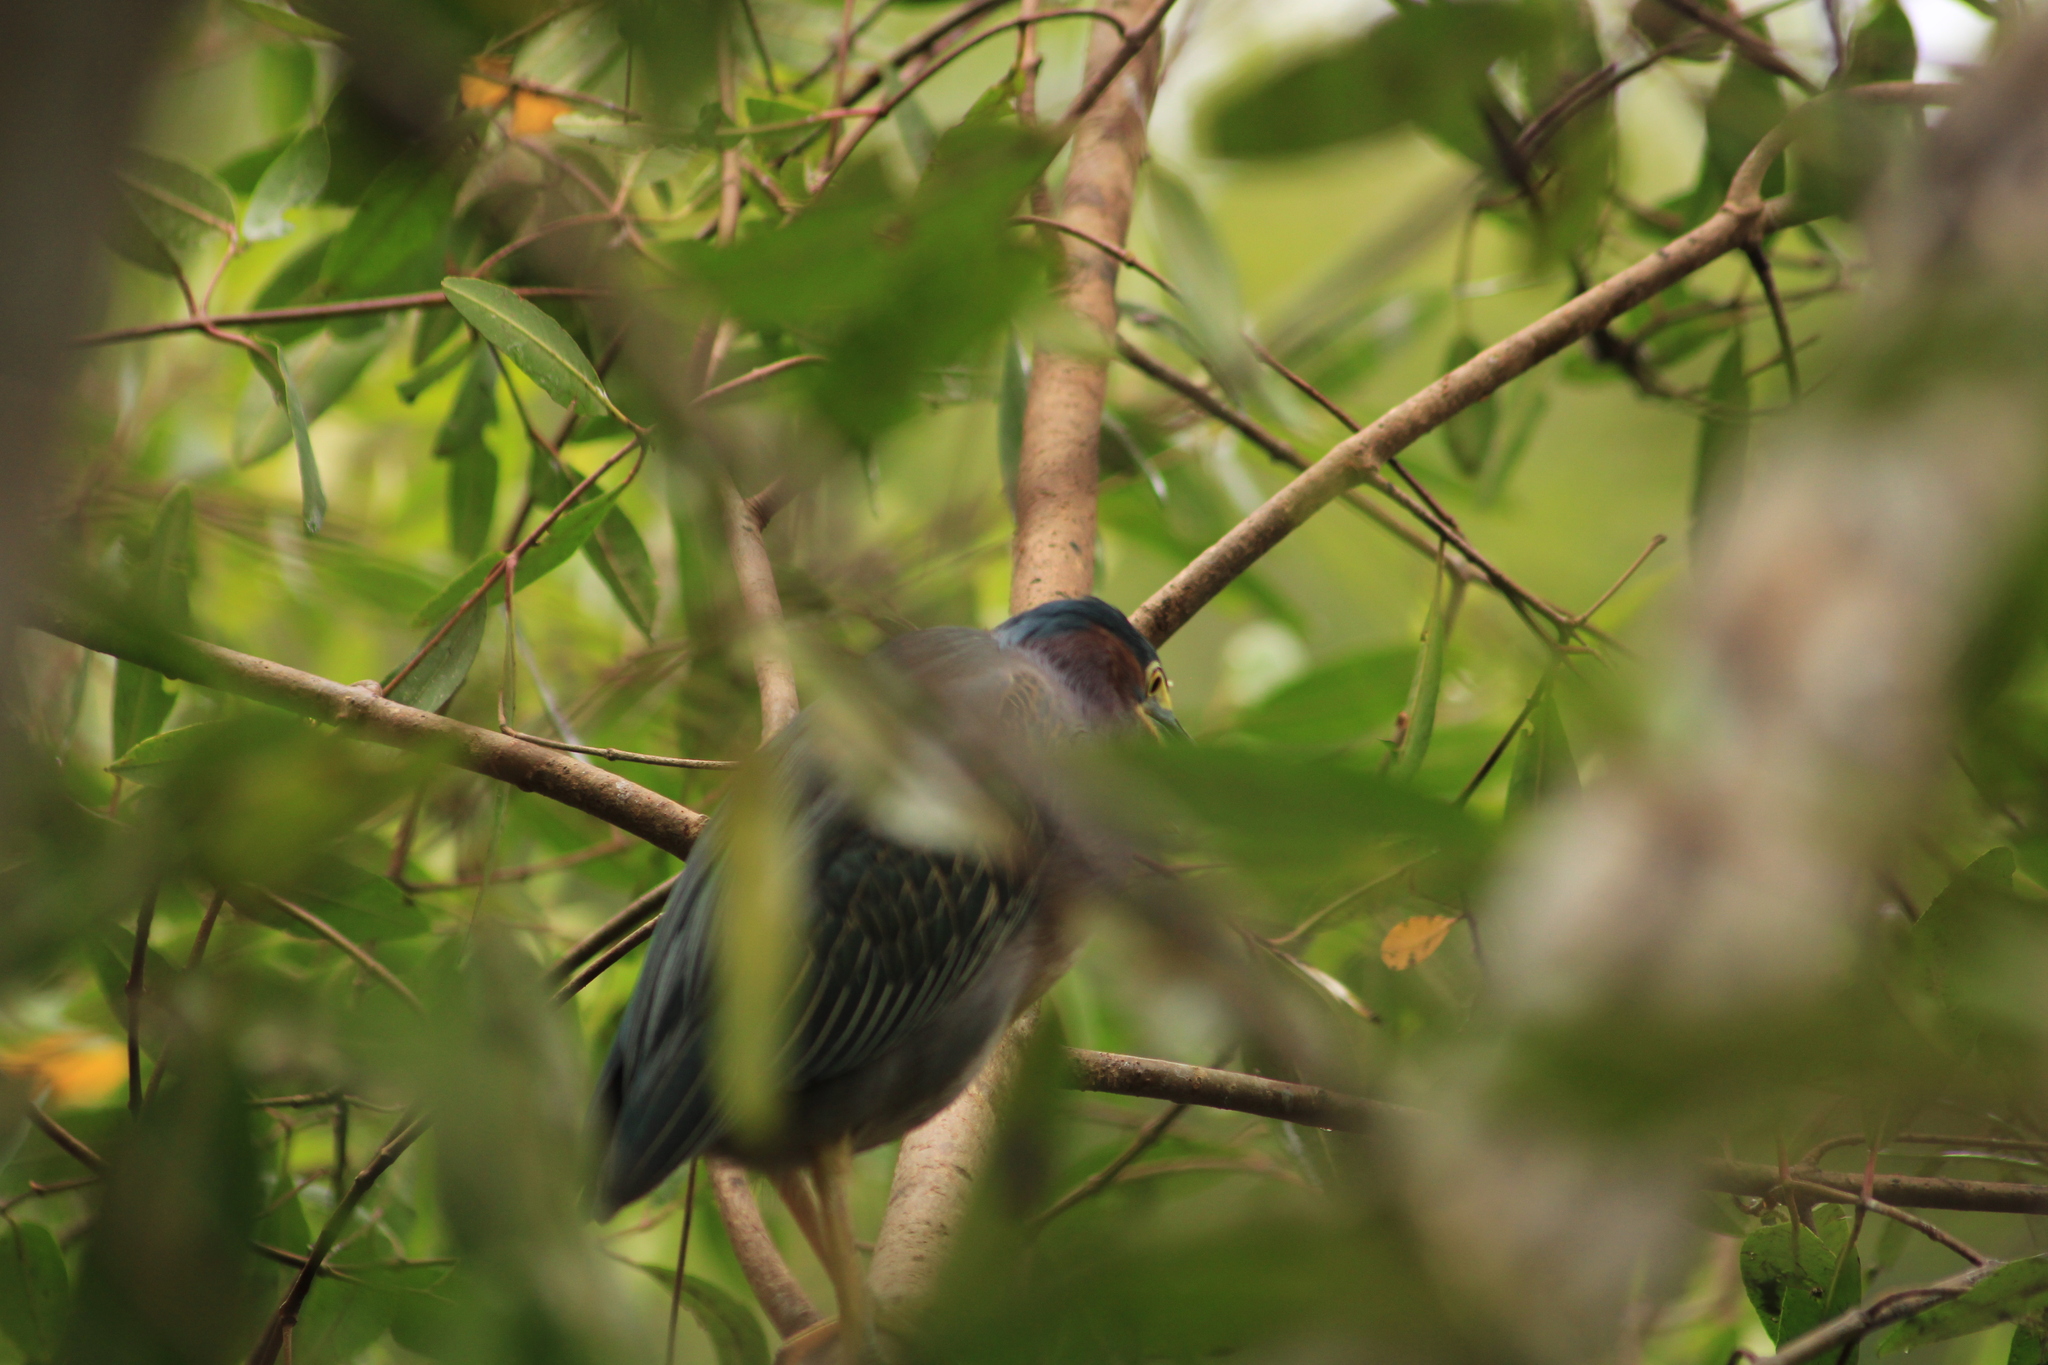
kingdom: Animalia
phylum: Chordata
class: Aves
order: Pelecaniformes
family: Ardeidae
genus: Butorides
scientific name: Butorides virescens
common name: Green heron
